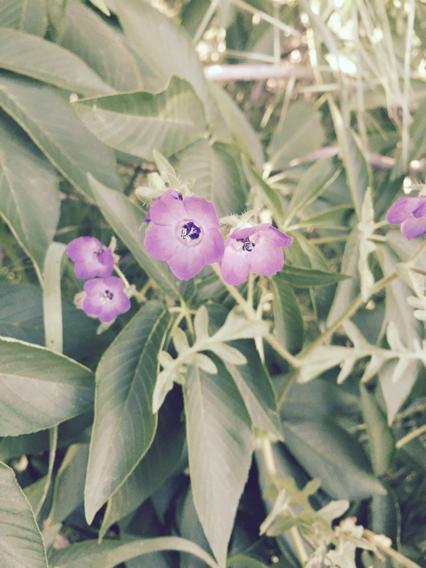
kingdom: Plantae
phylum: Tracheophyta
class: Magnoliopsida
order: Boraginales
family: Hydrophyllaceae
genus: Pholistoma
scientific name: Pholistoma auritum
